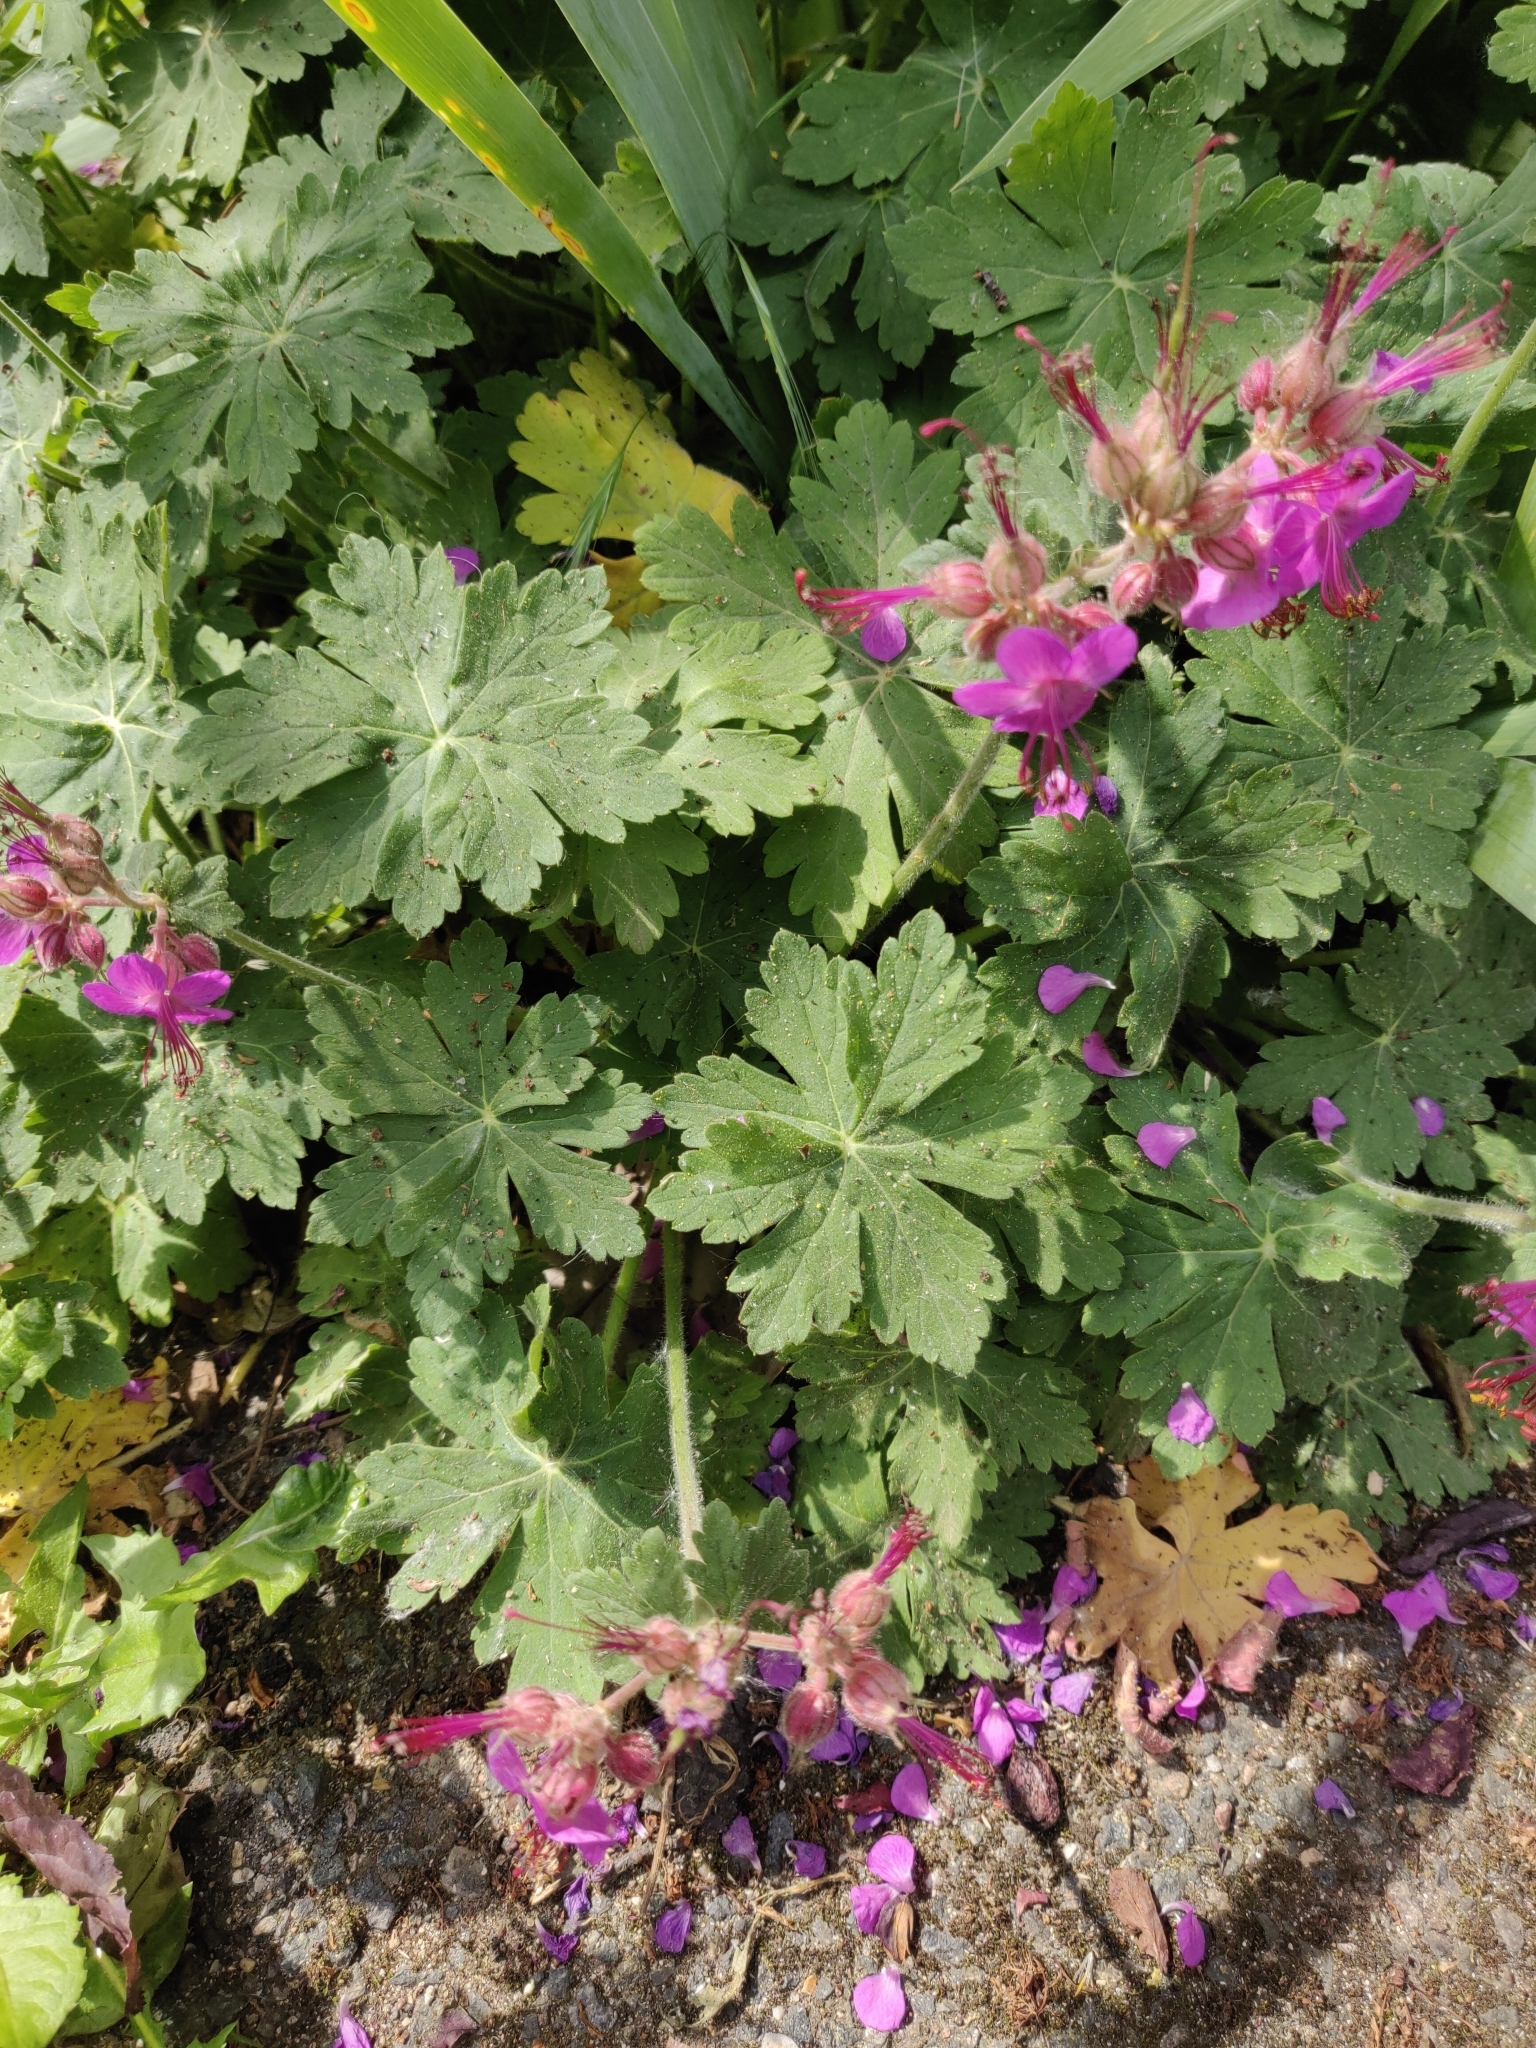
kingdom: Plantae
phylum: Tracheophyta
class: Magnoliopsida
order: Geraniales
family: Geraniaceae
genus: Geranium
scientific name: Geranium macrorrhizum
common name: Rock crane's-bill
